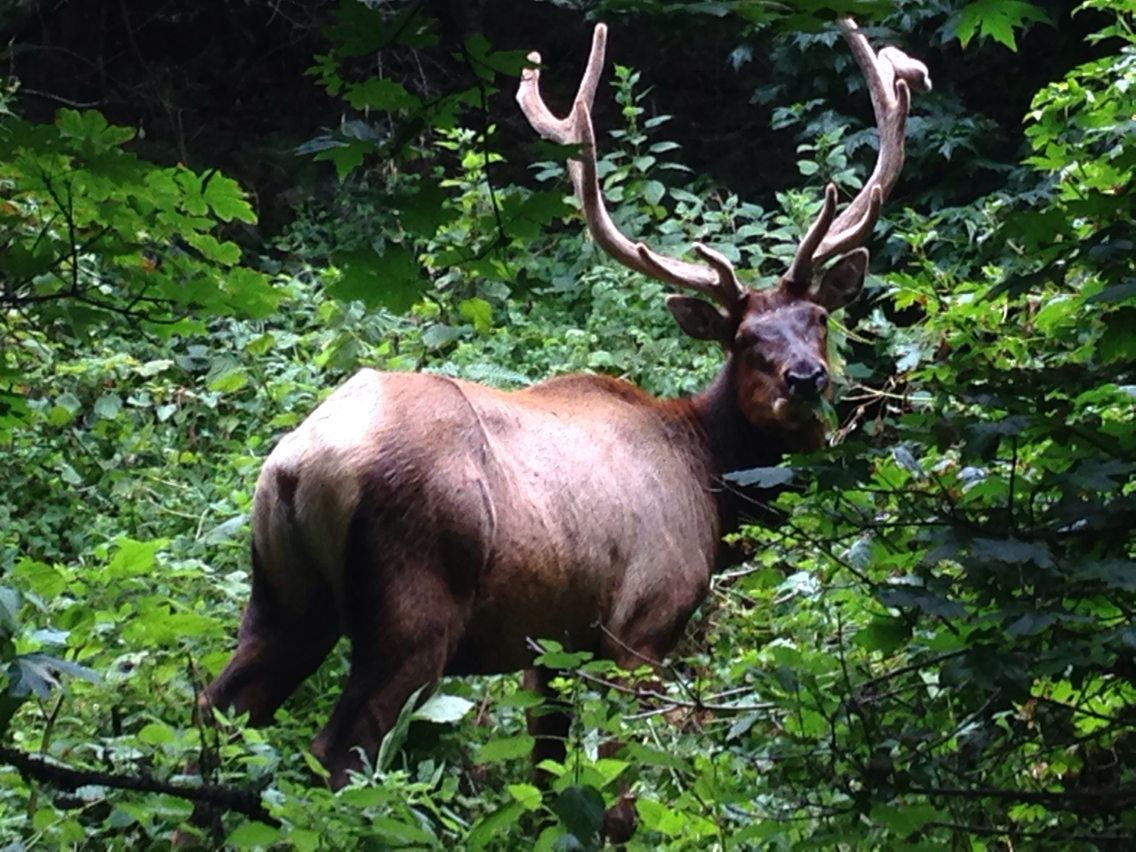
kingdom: Animalia
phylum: Chordata
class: Mammalia
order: Artiodactyla
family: Cervidae
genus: Cervus
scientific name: Cervus elaphus
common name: Red deer
